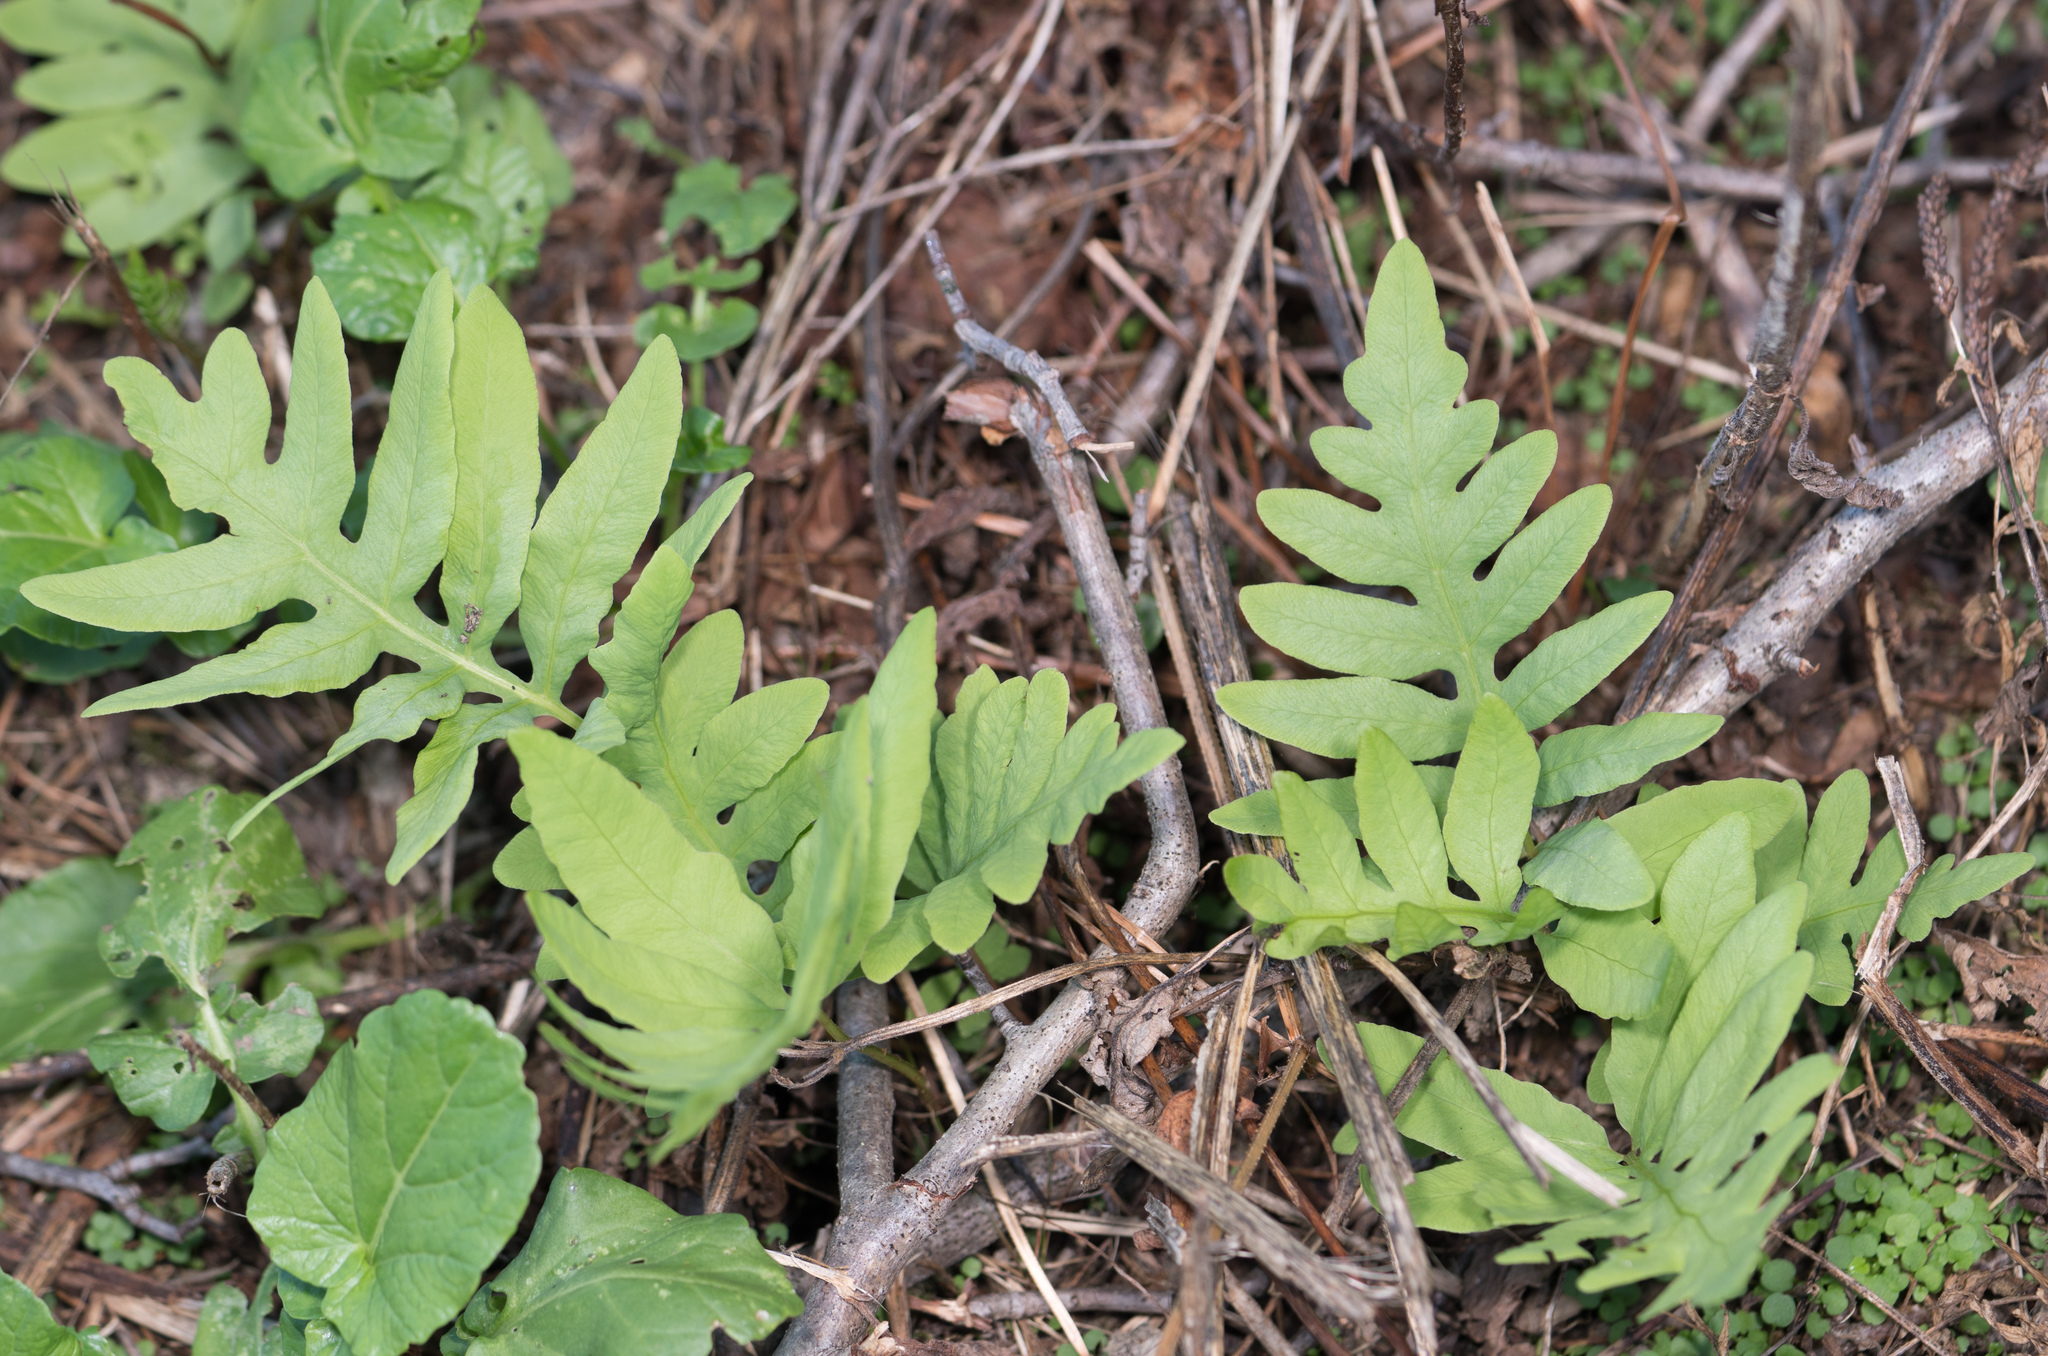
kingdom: Plantae
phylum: Tracheophyta
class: Polypodiopsida
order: Polypodiales
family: Onocleaceae
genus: Onoclea
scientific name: Onoclea sensibilis
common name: Sensitive fern
